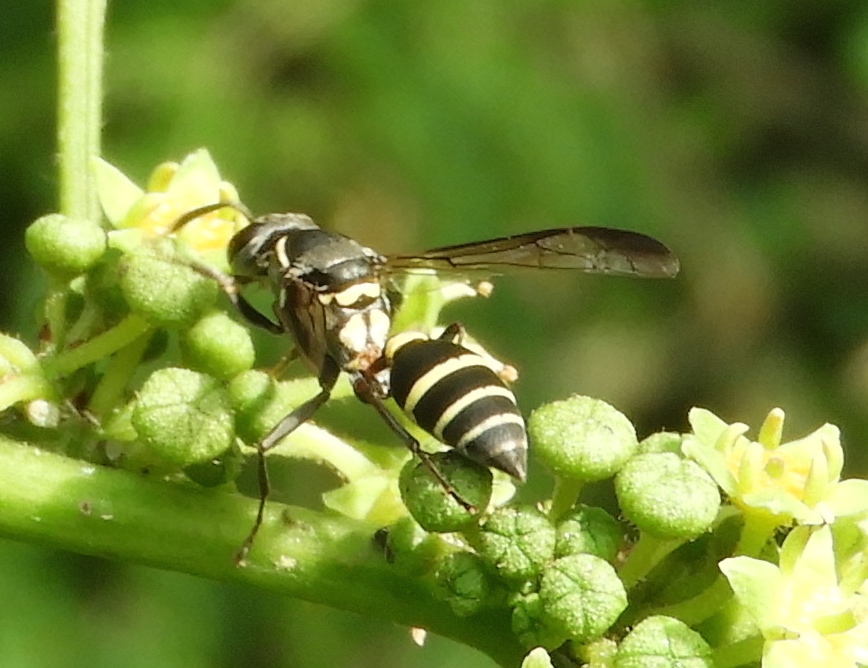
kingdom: Animalia
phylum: Arthropoda
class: Insecta
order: Hymenoptera
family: Vespidae
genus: Myrapetra
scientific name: Myrapetra
